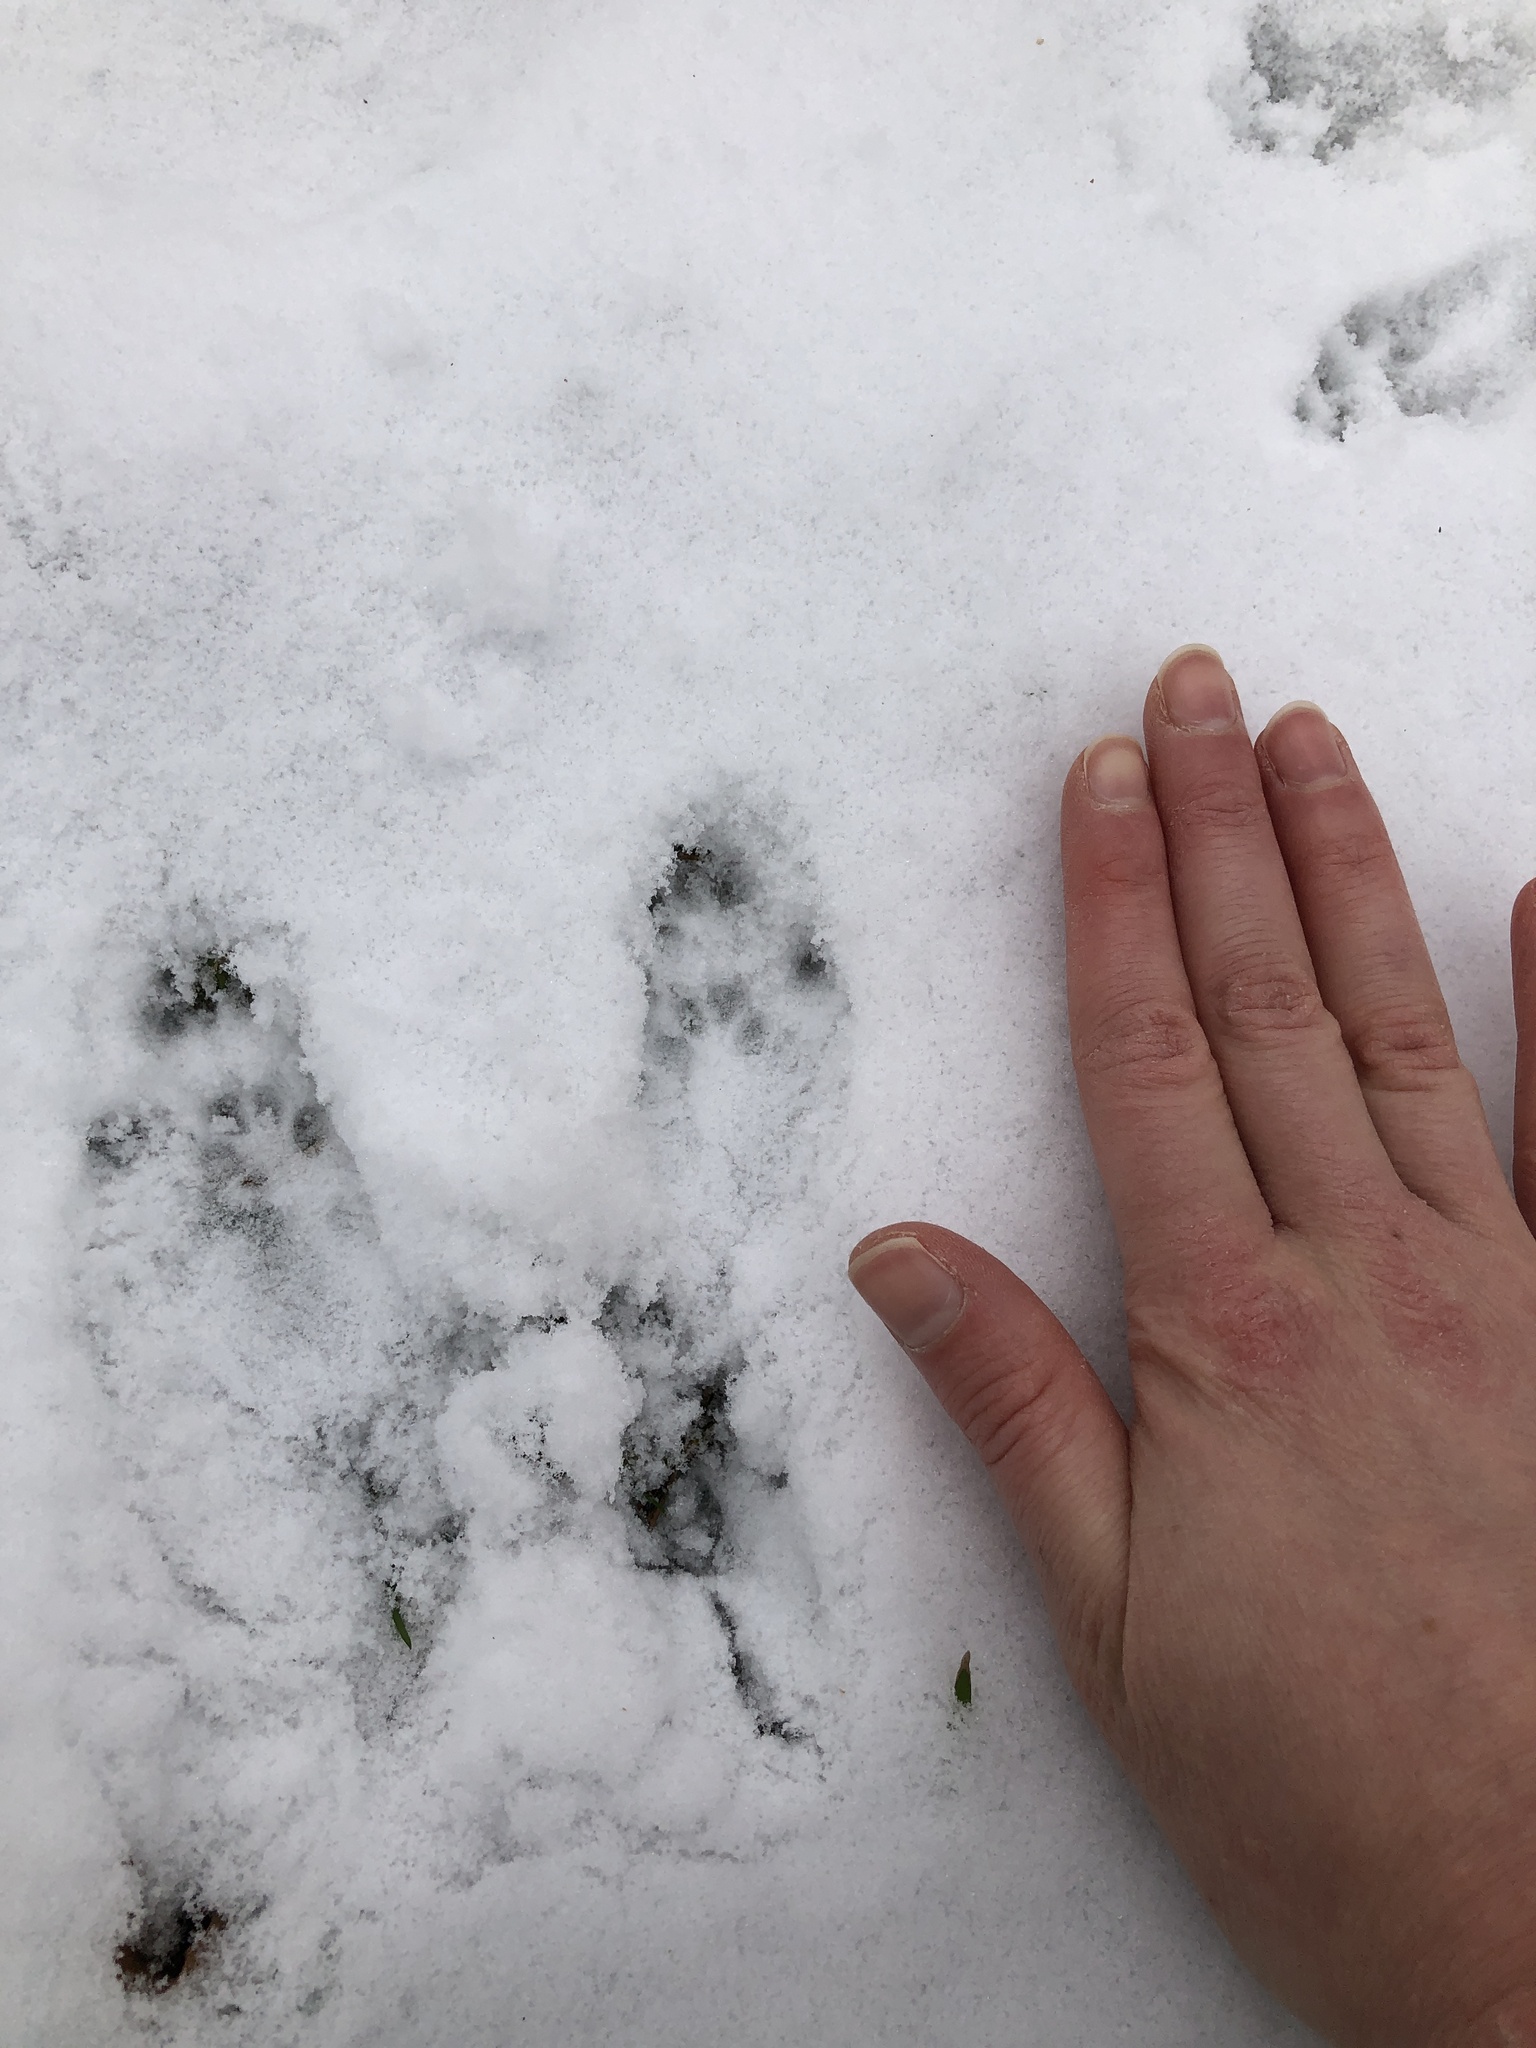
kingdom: Animalia
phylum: Chordata
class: Mammalia
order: Rodentia
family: Sciuridae
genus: Sciurus
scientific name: Sciurus carolinensis
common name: Eastern gray squirrel
